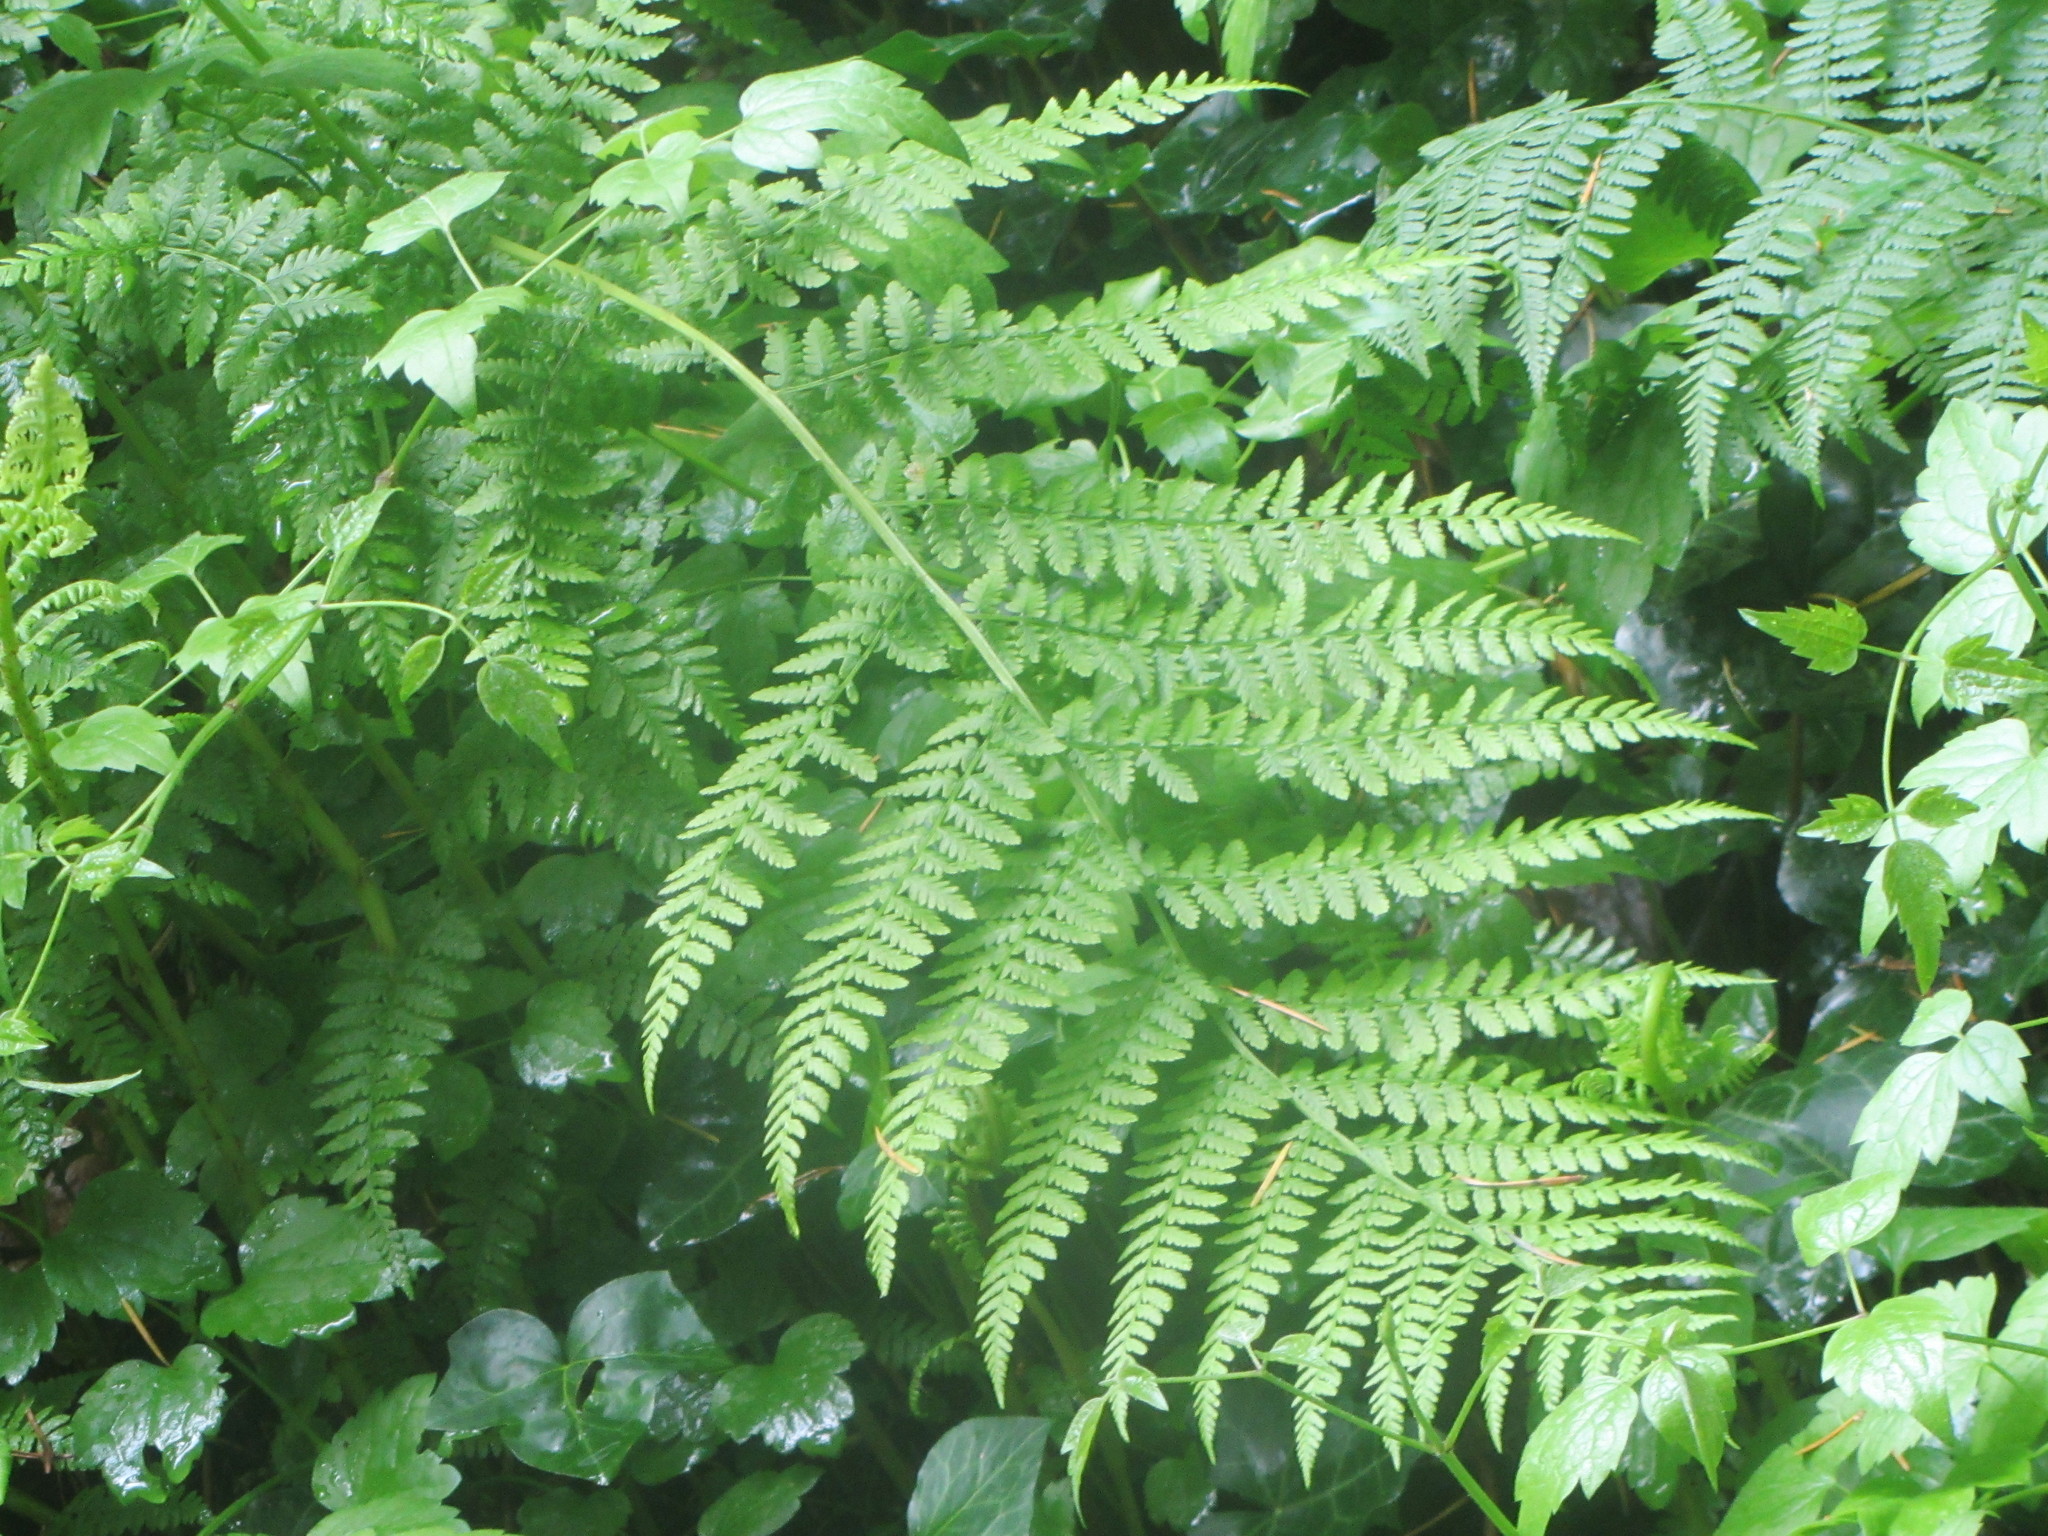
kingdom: Plantae
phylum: Tracheophyta
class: Polypodiopsida
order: Polypodiales
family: Athyriaceae
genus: Athyrium
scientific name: Athyrium filix-femina
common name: Lady fern
